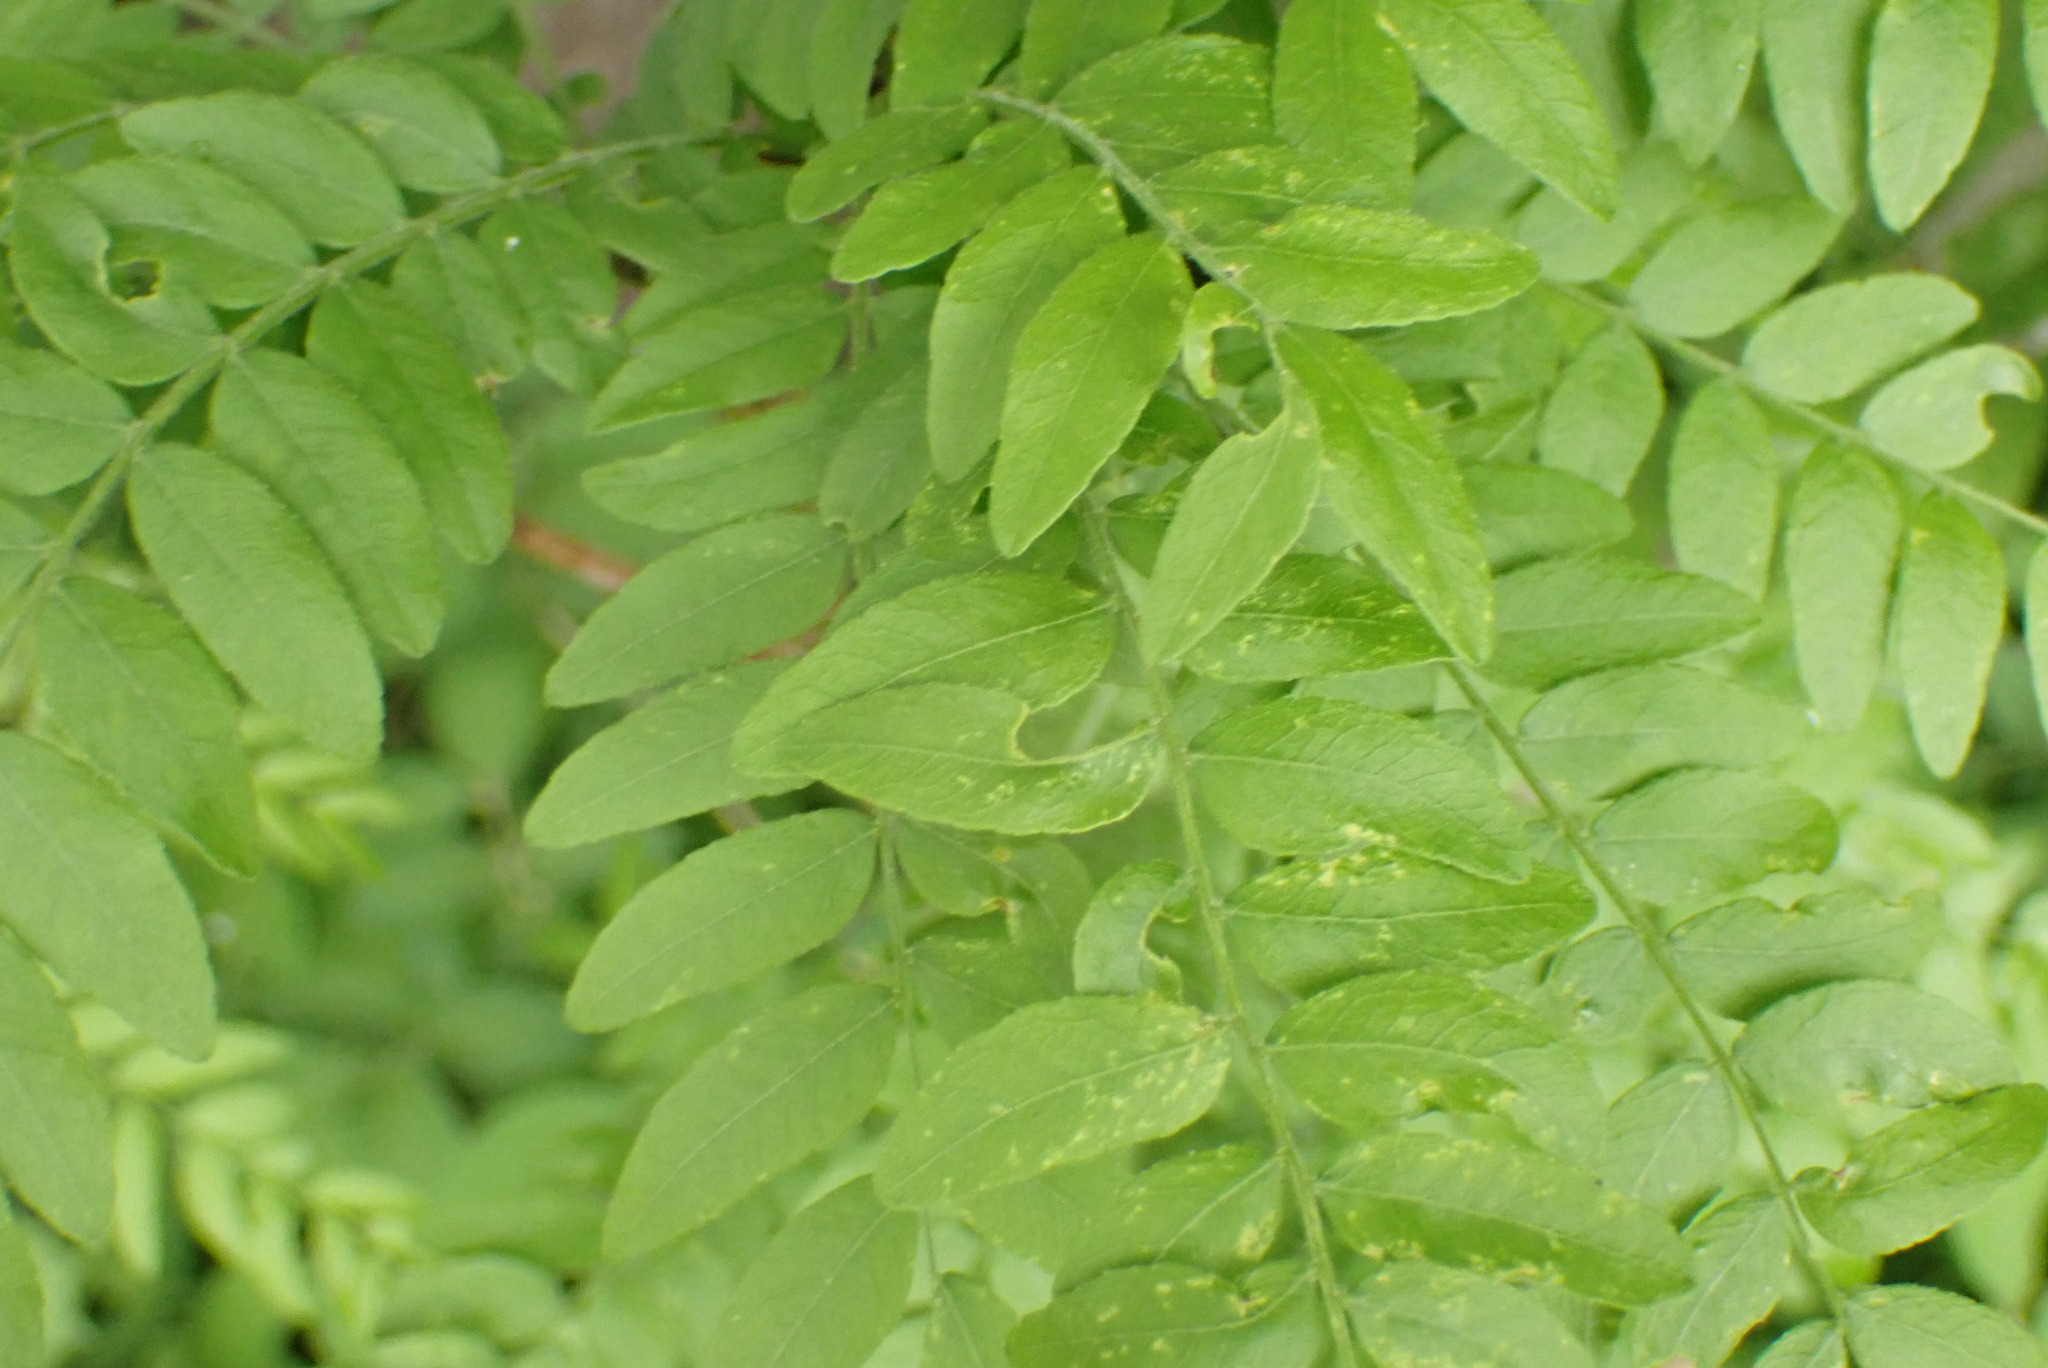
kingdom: Plantae
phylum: Tracheophyta
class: Magnoliopsida
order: Fabales
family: Fabaceae
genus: Gleditsia
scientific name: Gleditsia triacanthos
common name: Common honeylocust
